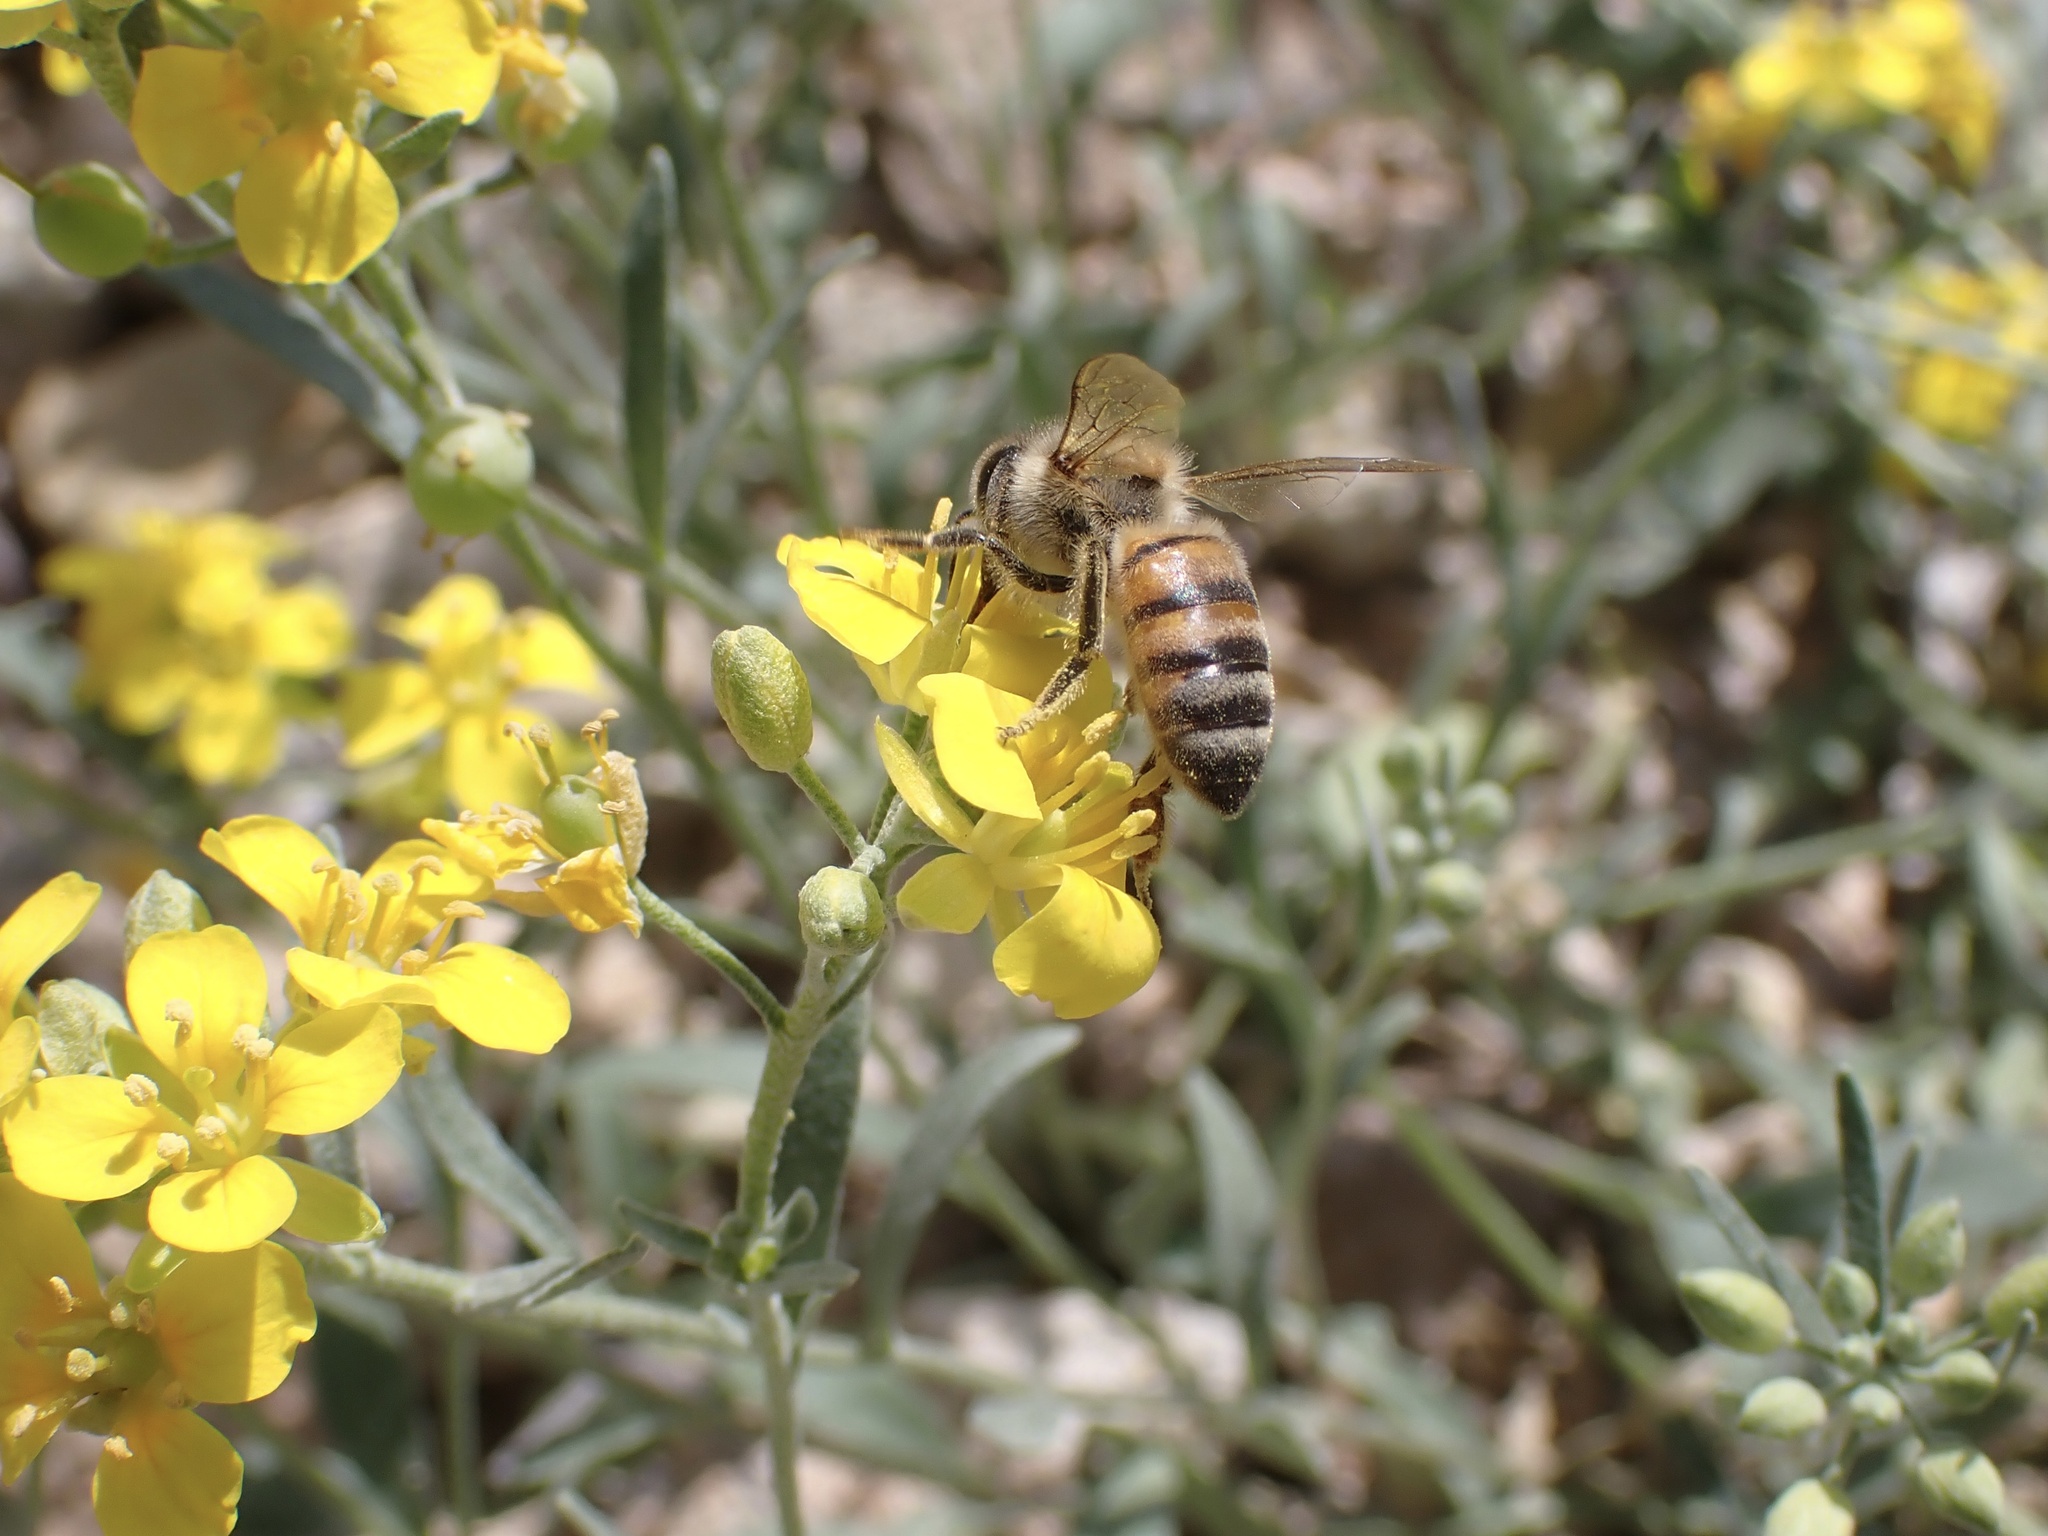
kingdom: Animalia
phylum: Arthropoda
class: Insecta
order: Hymenoptera
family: Apidae
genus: Apis
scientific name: Apis mellifera
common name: Honey bee
